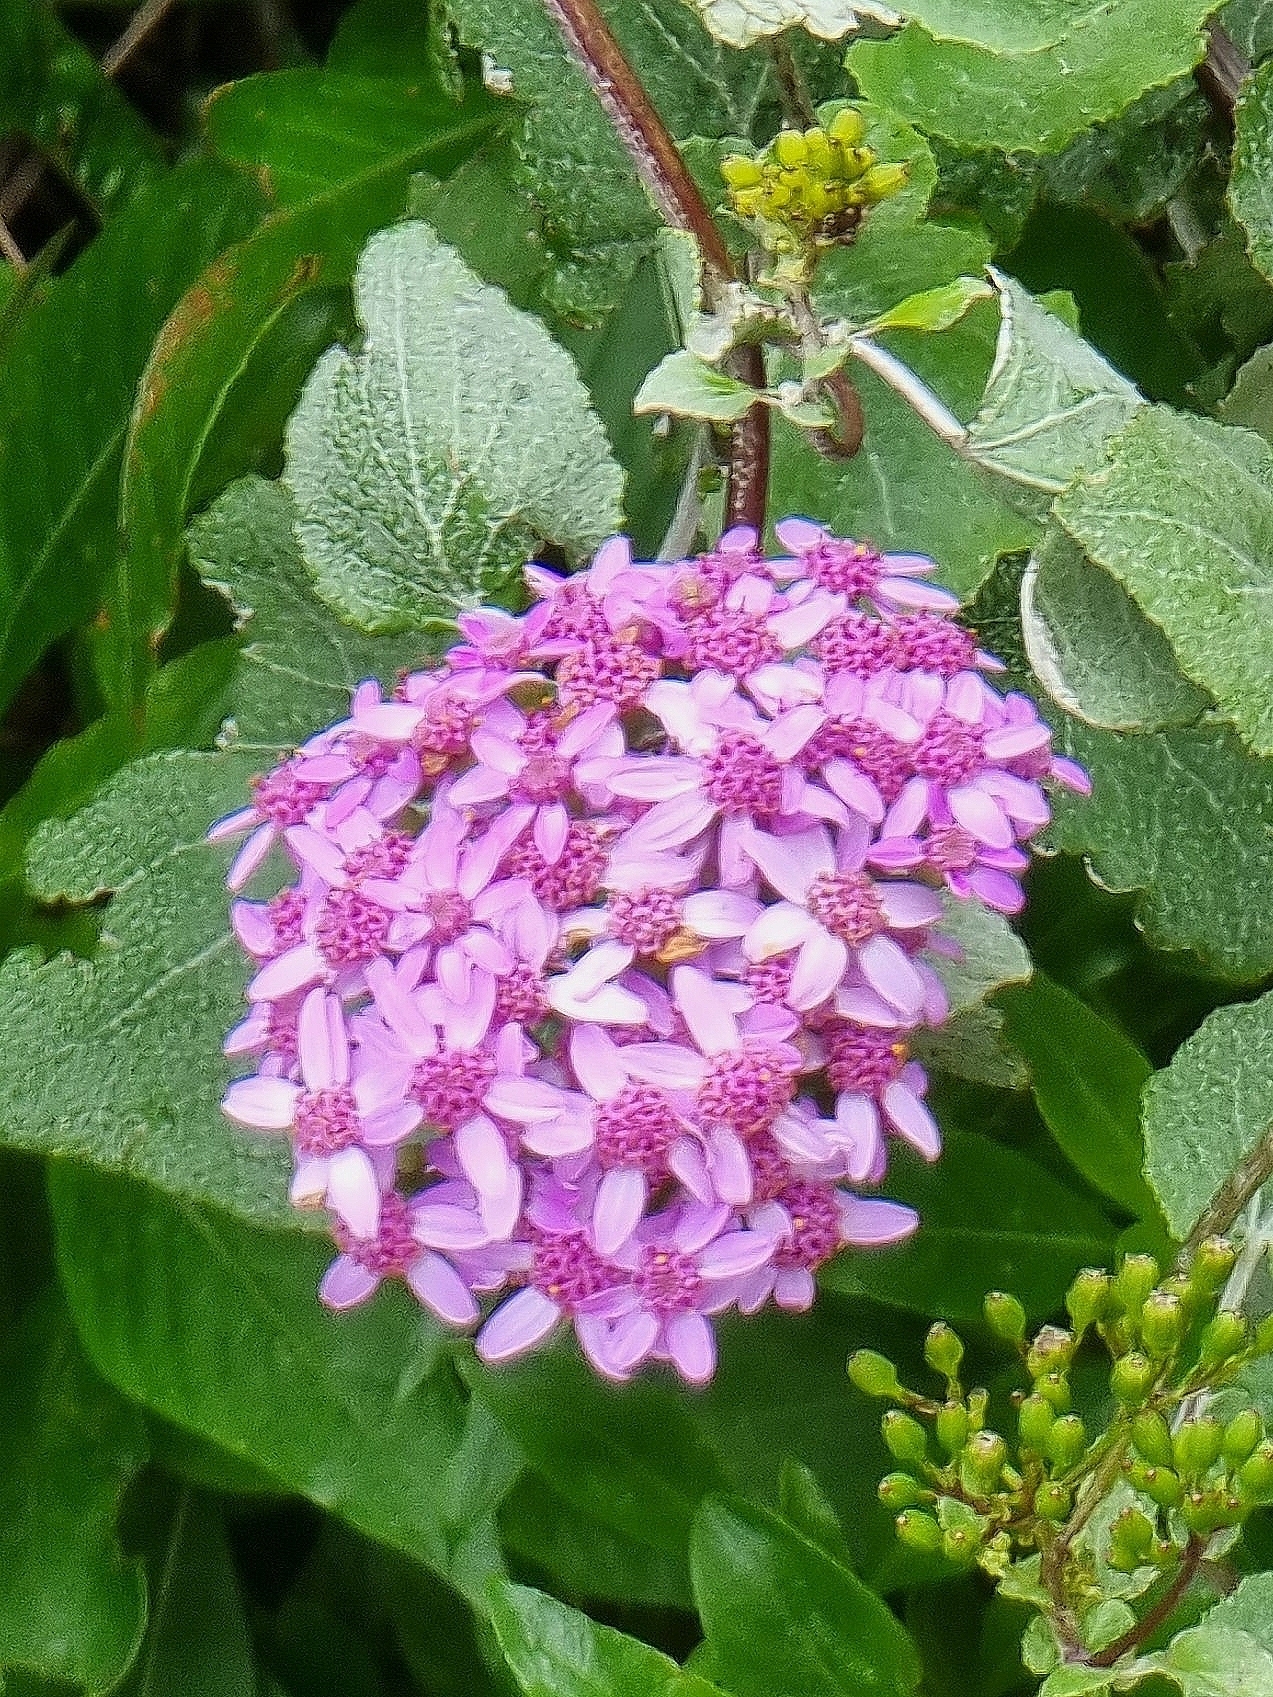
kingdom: Plantae
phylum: Tracheophyta
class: Magnoliopsida
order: Asterales
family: Asteraceae
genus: Pericallis
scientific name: Pericallis aurita
